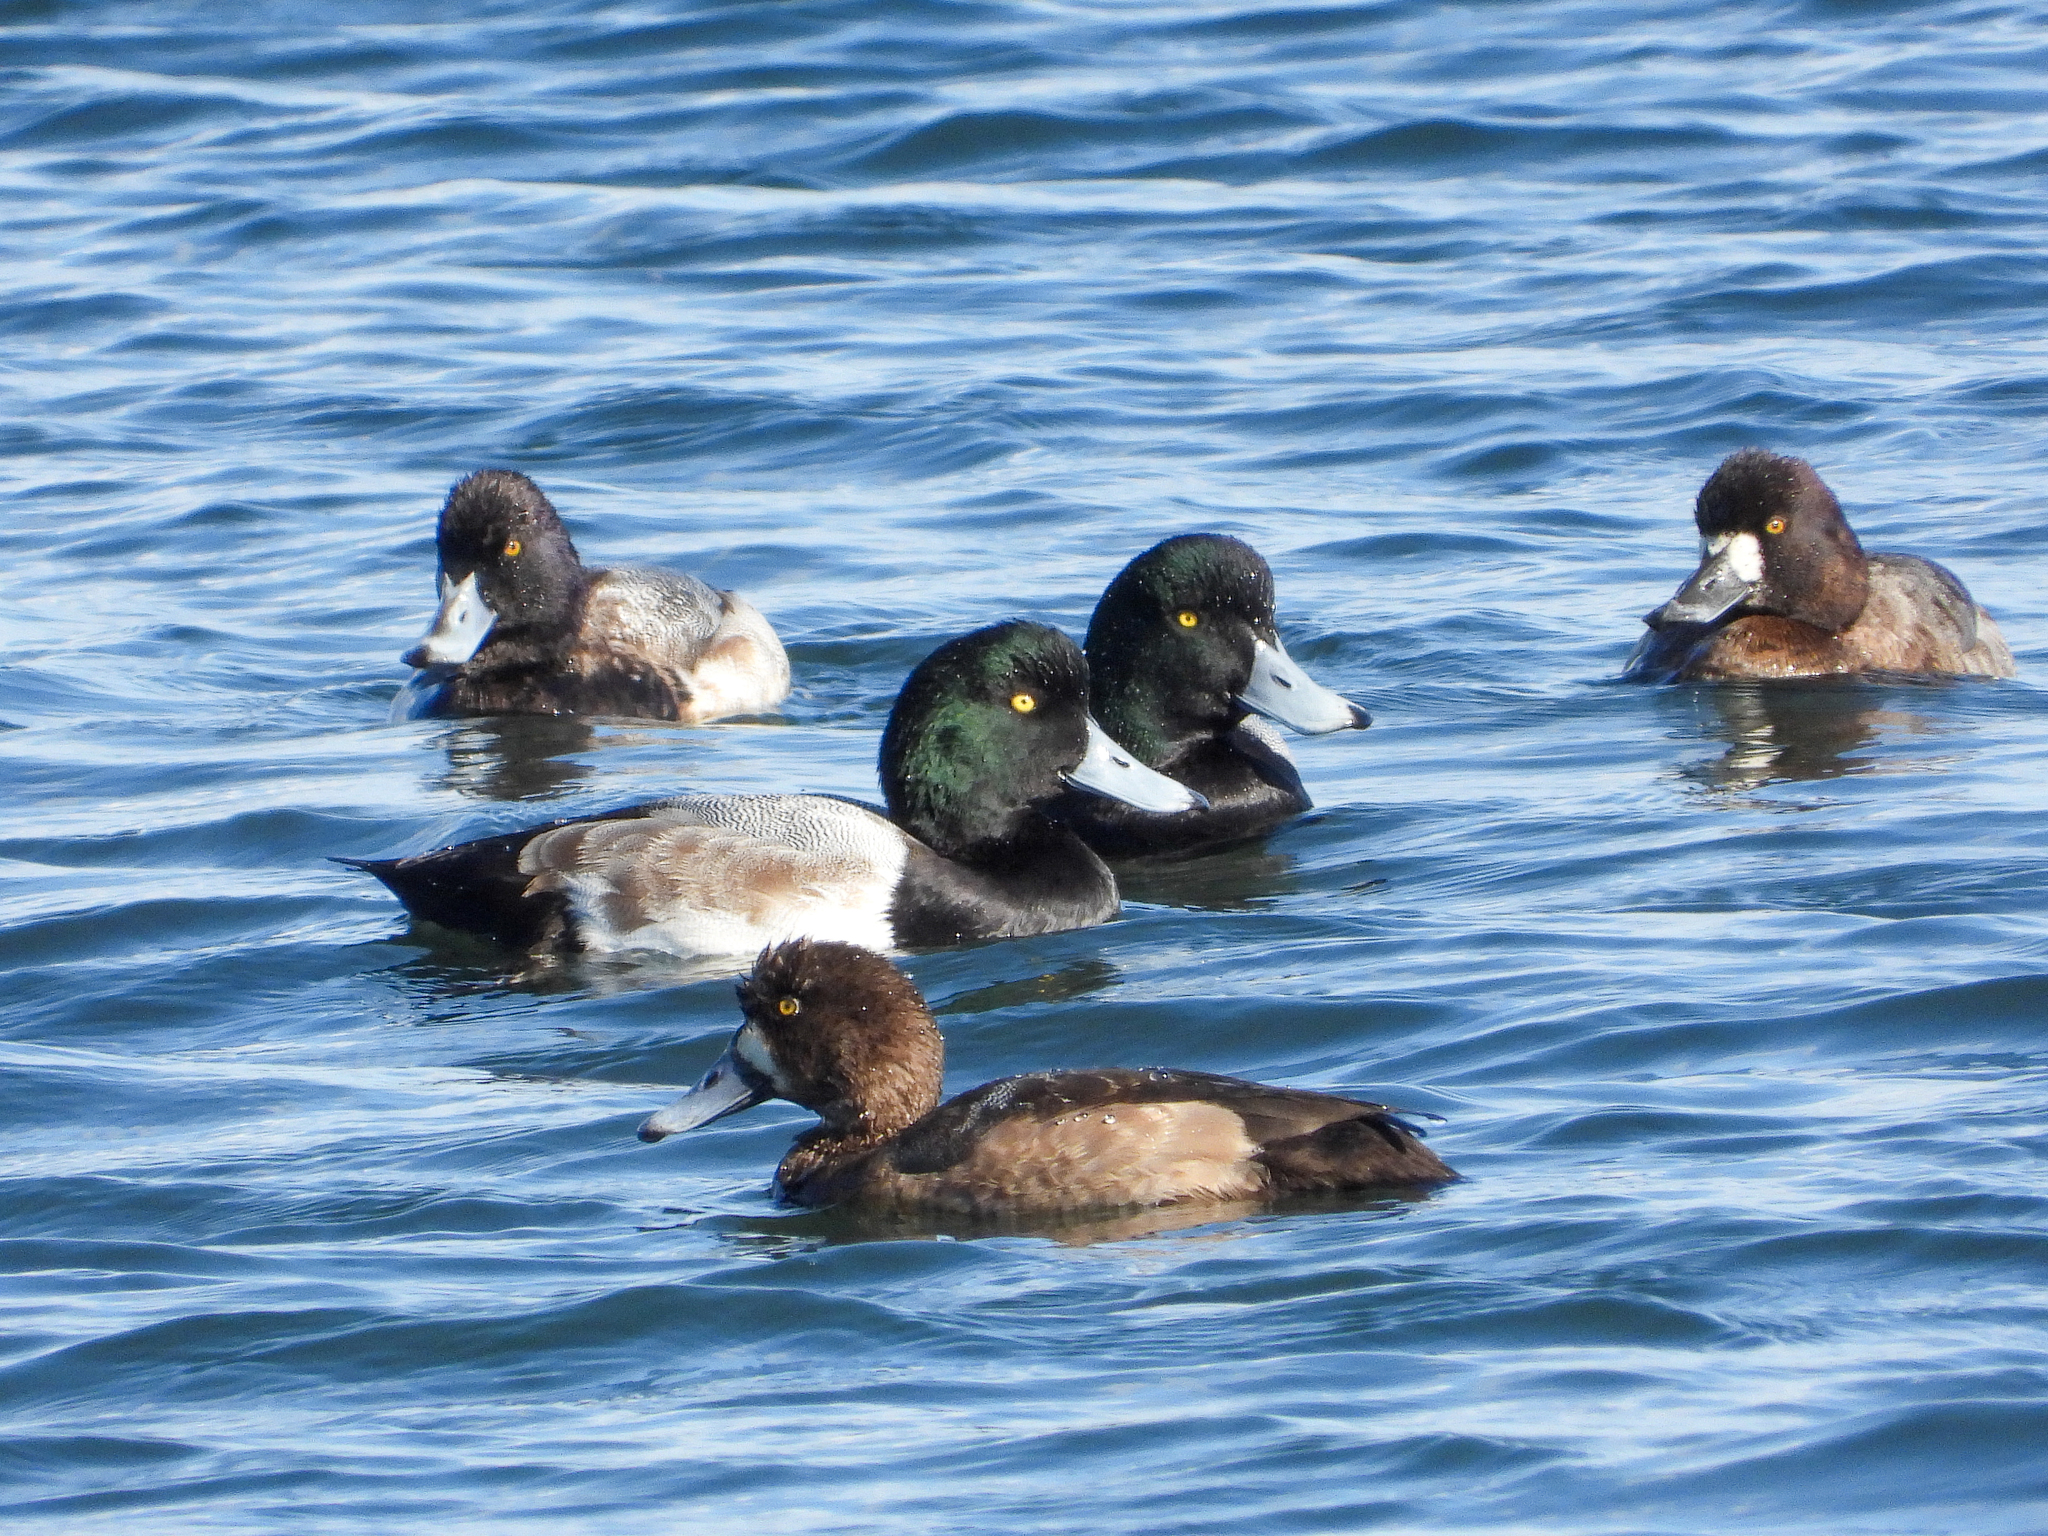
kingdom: Animalia
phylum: Chordata
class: Aves
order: Anseriformes
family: Anatidae
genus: Aythya
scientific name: Aythya marila
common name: Greater scaup
